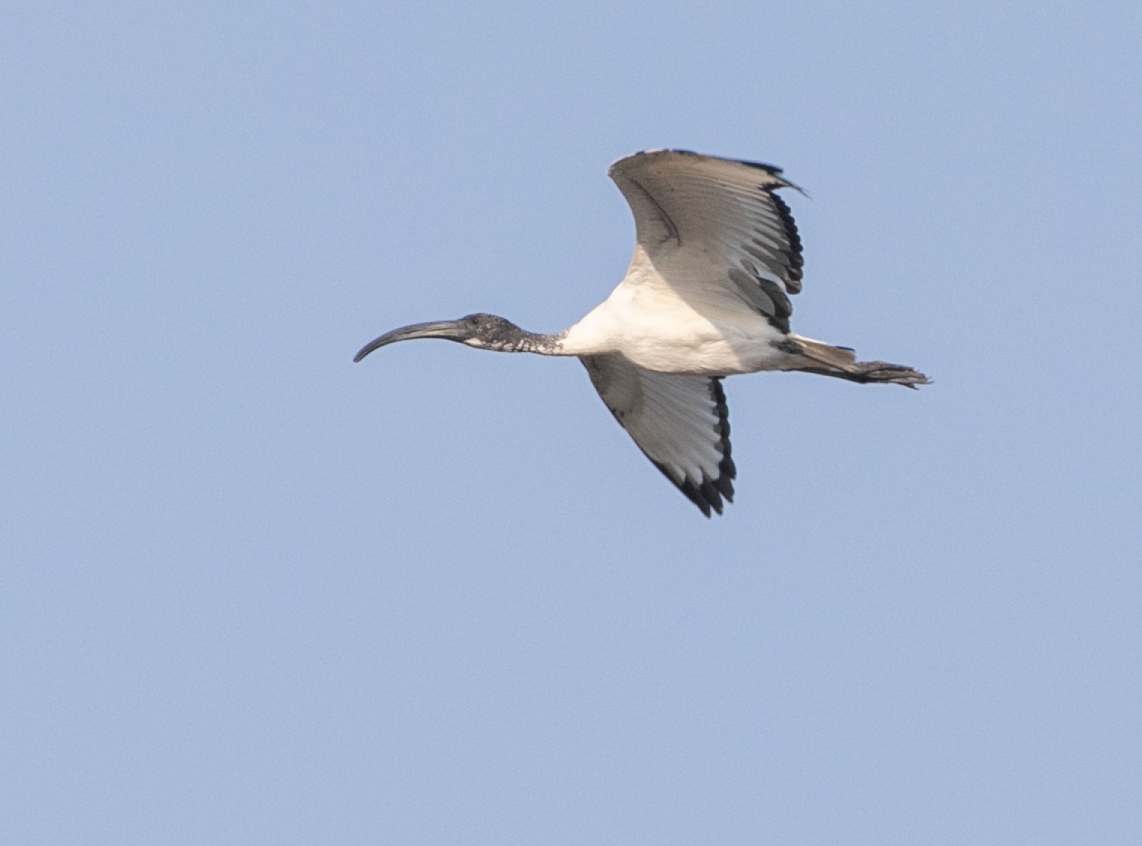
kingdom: Animalia
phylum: Chordata
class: Aves
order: Pelecaniformes
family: Threskiornithidae
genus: Threskiornis
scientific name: Threskiornis aethiopicus
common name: Sacred ibis
